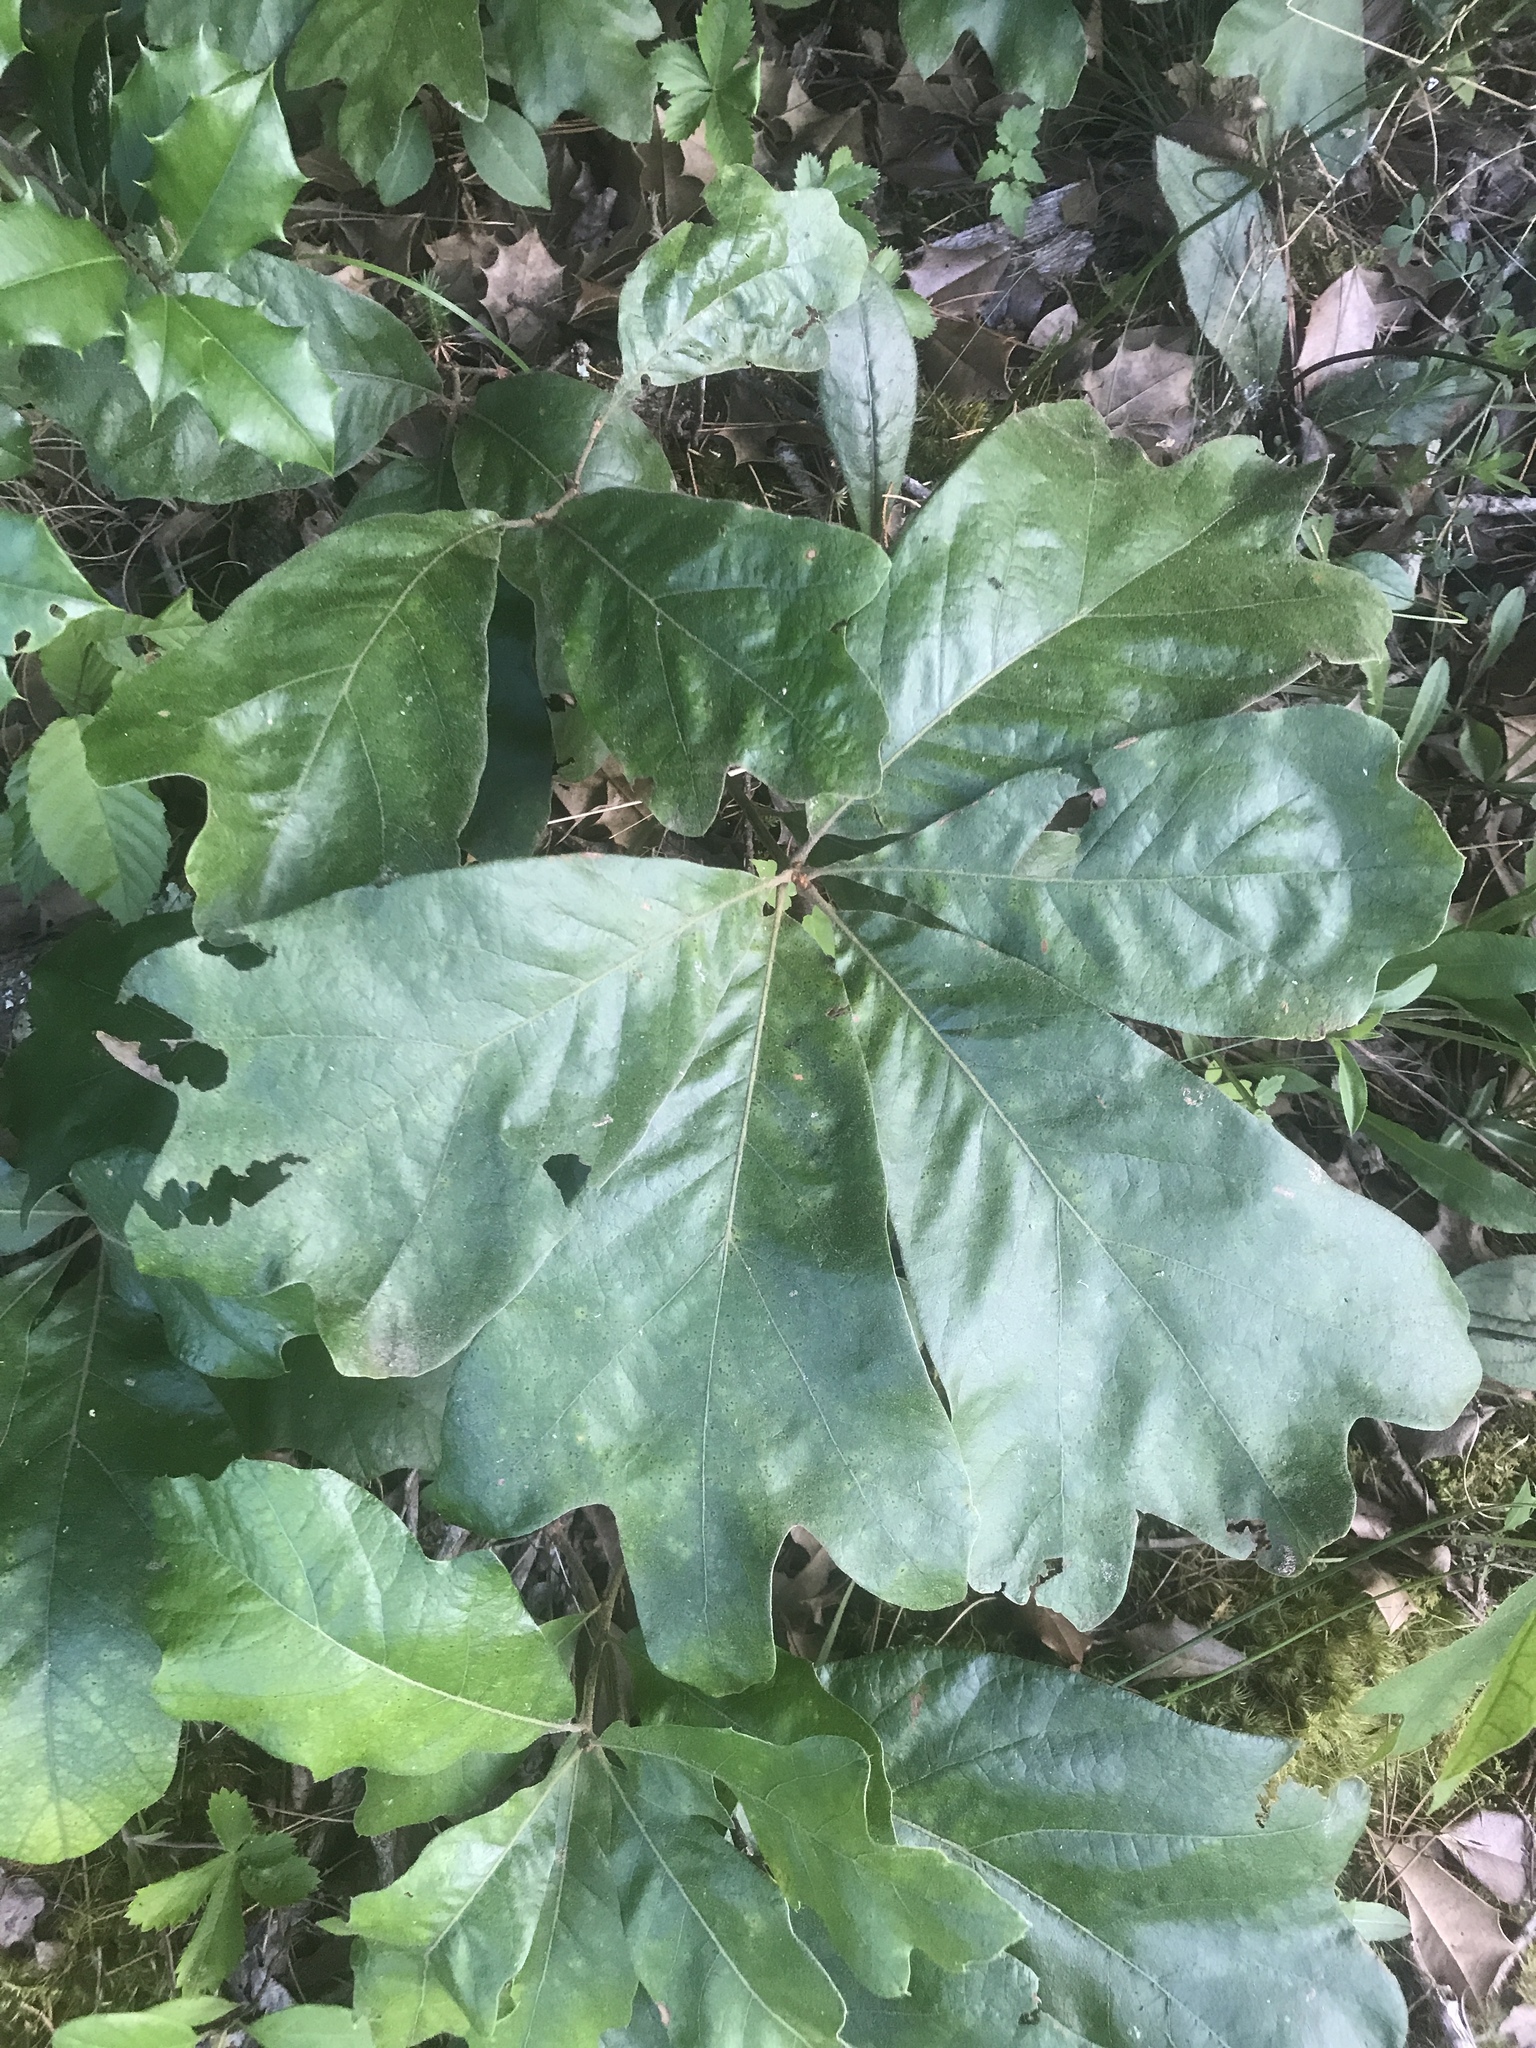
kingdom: Plantae
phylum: Tracheophyta
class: Magnoliopsida
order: Fagales
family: Fagaceae
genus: Quercus
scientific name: Quercus falcata
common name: Southern red oak
